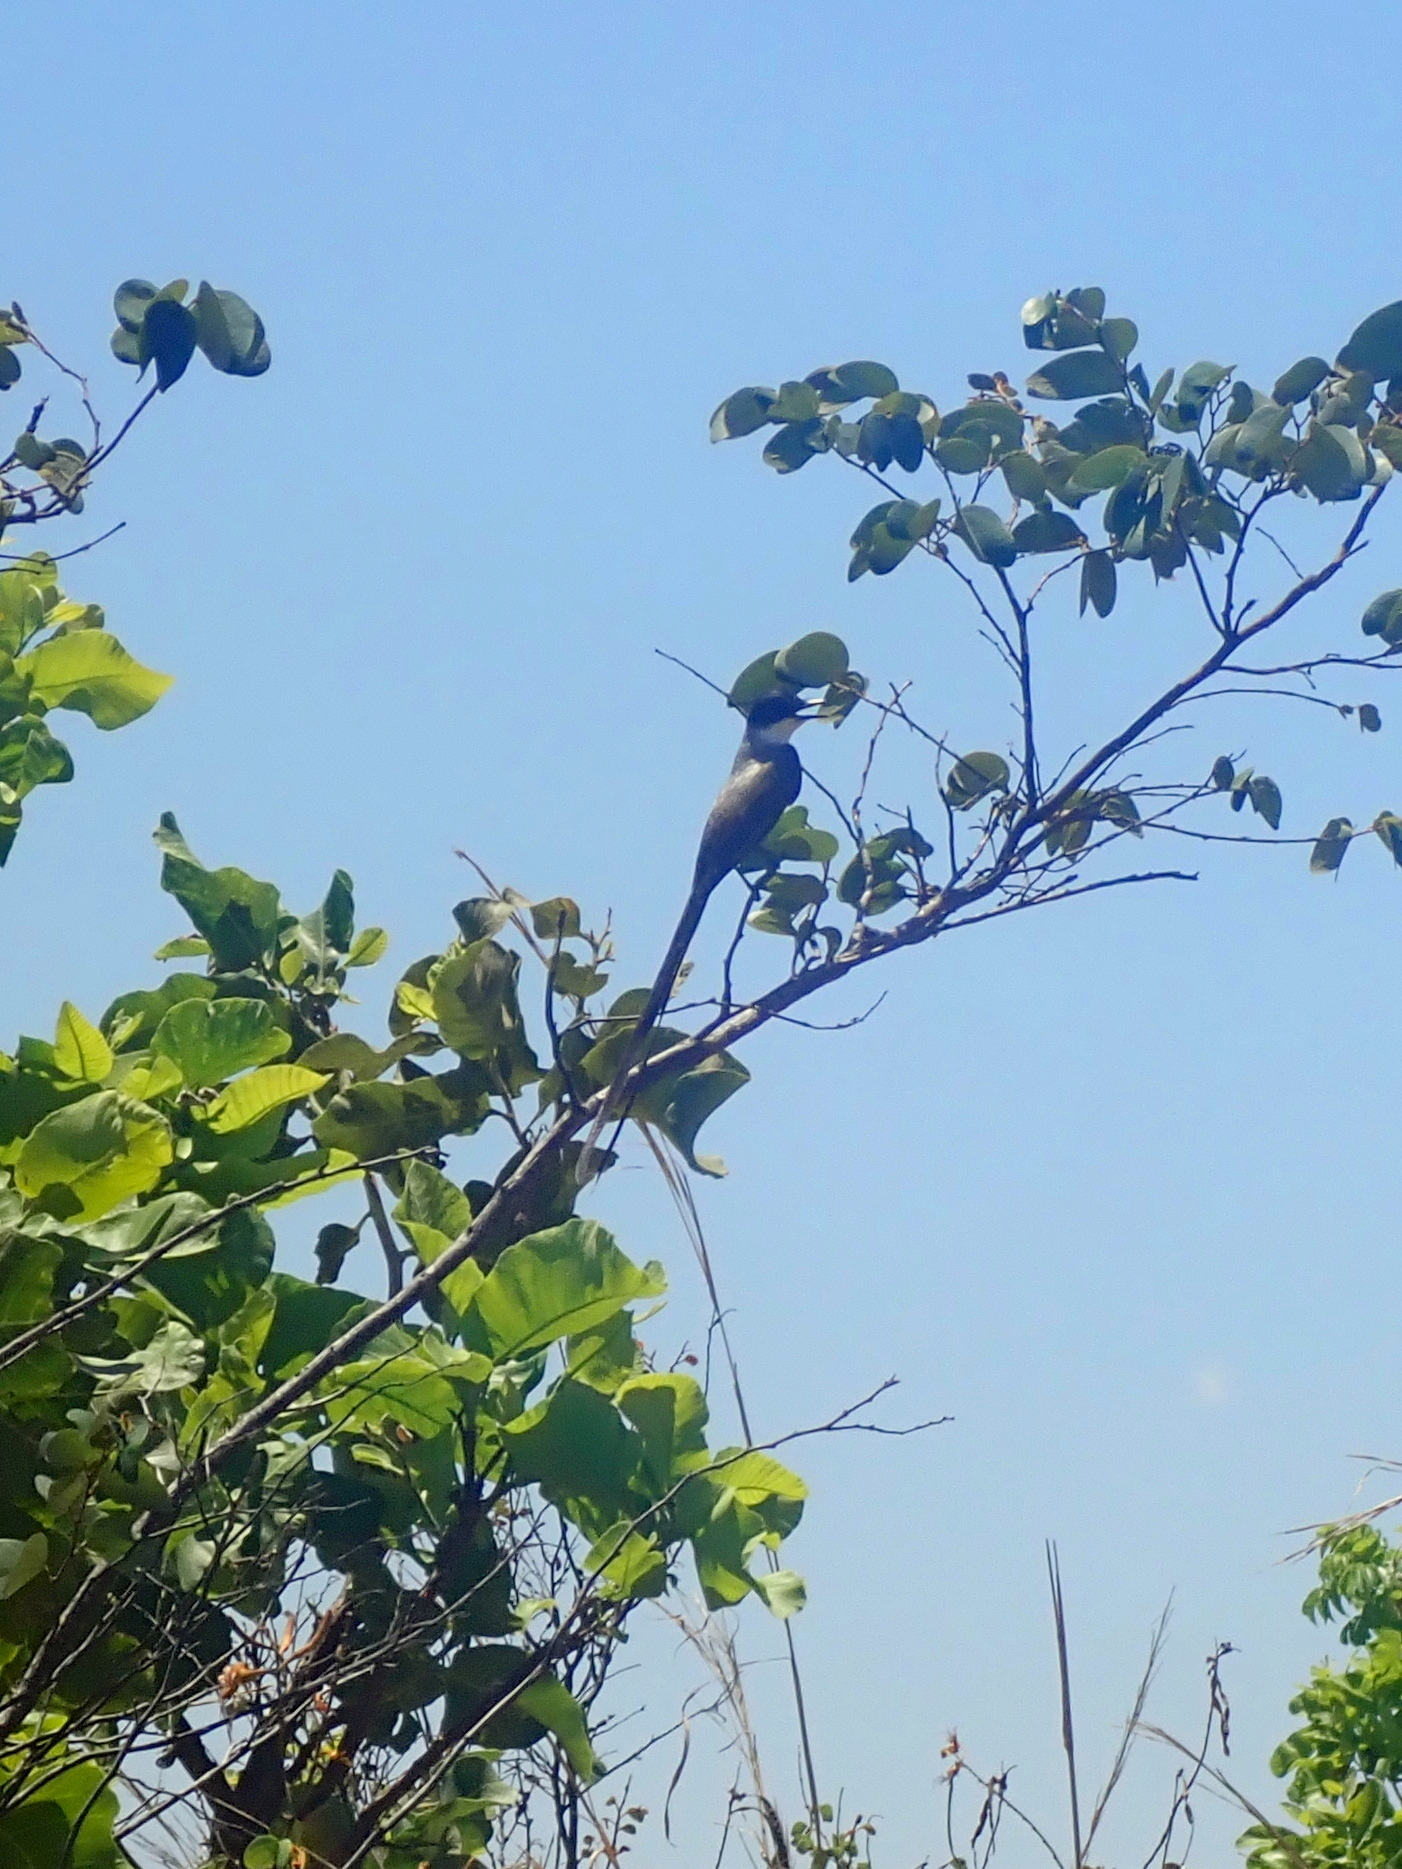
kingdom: Animalia
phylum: Chordata
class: Aves
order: Passeriformes
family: Tyrannidae
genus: Tyrannus
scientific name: Tyrannus savana
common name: Fork-tailed flycatcher
